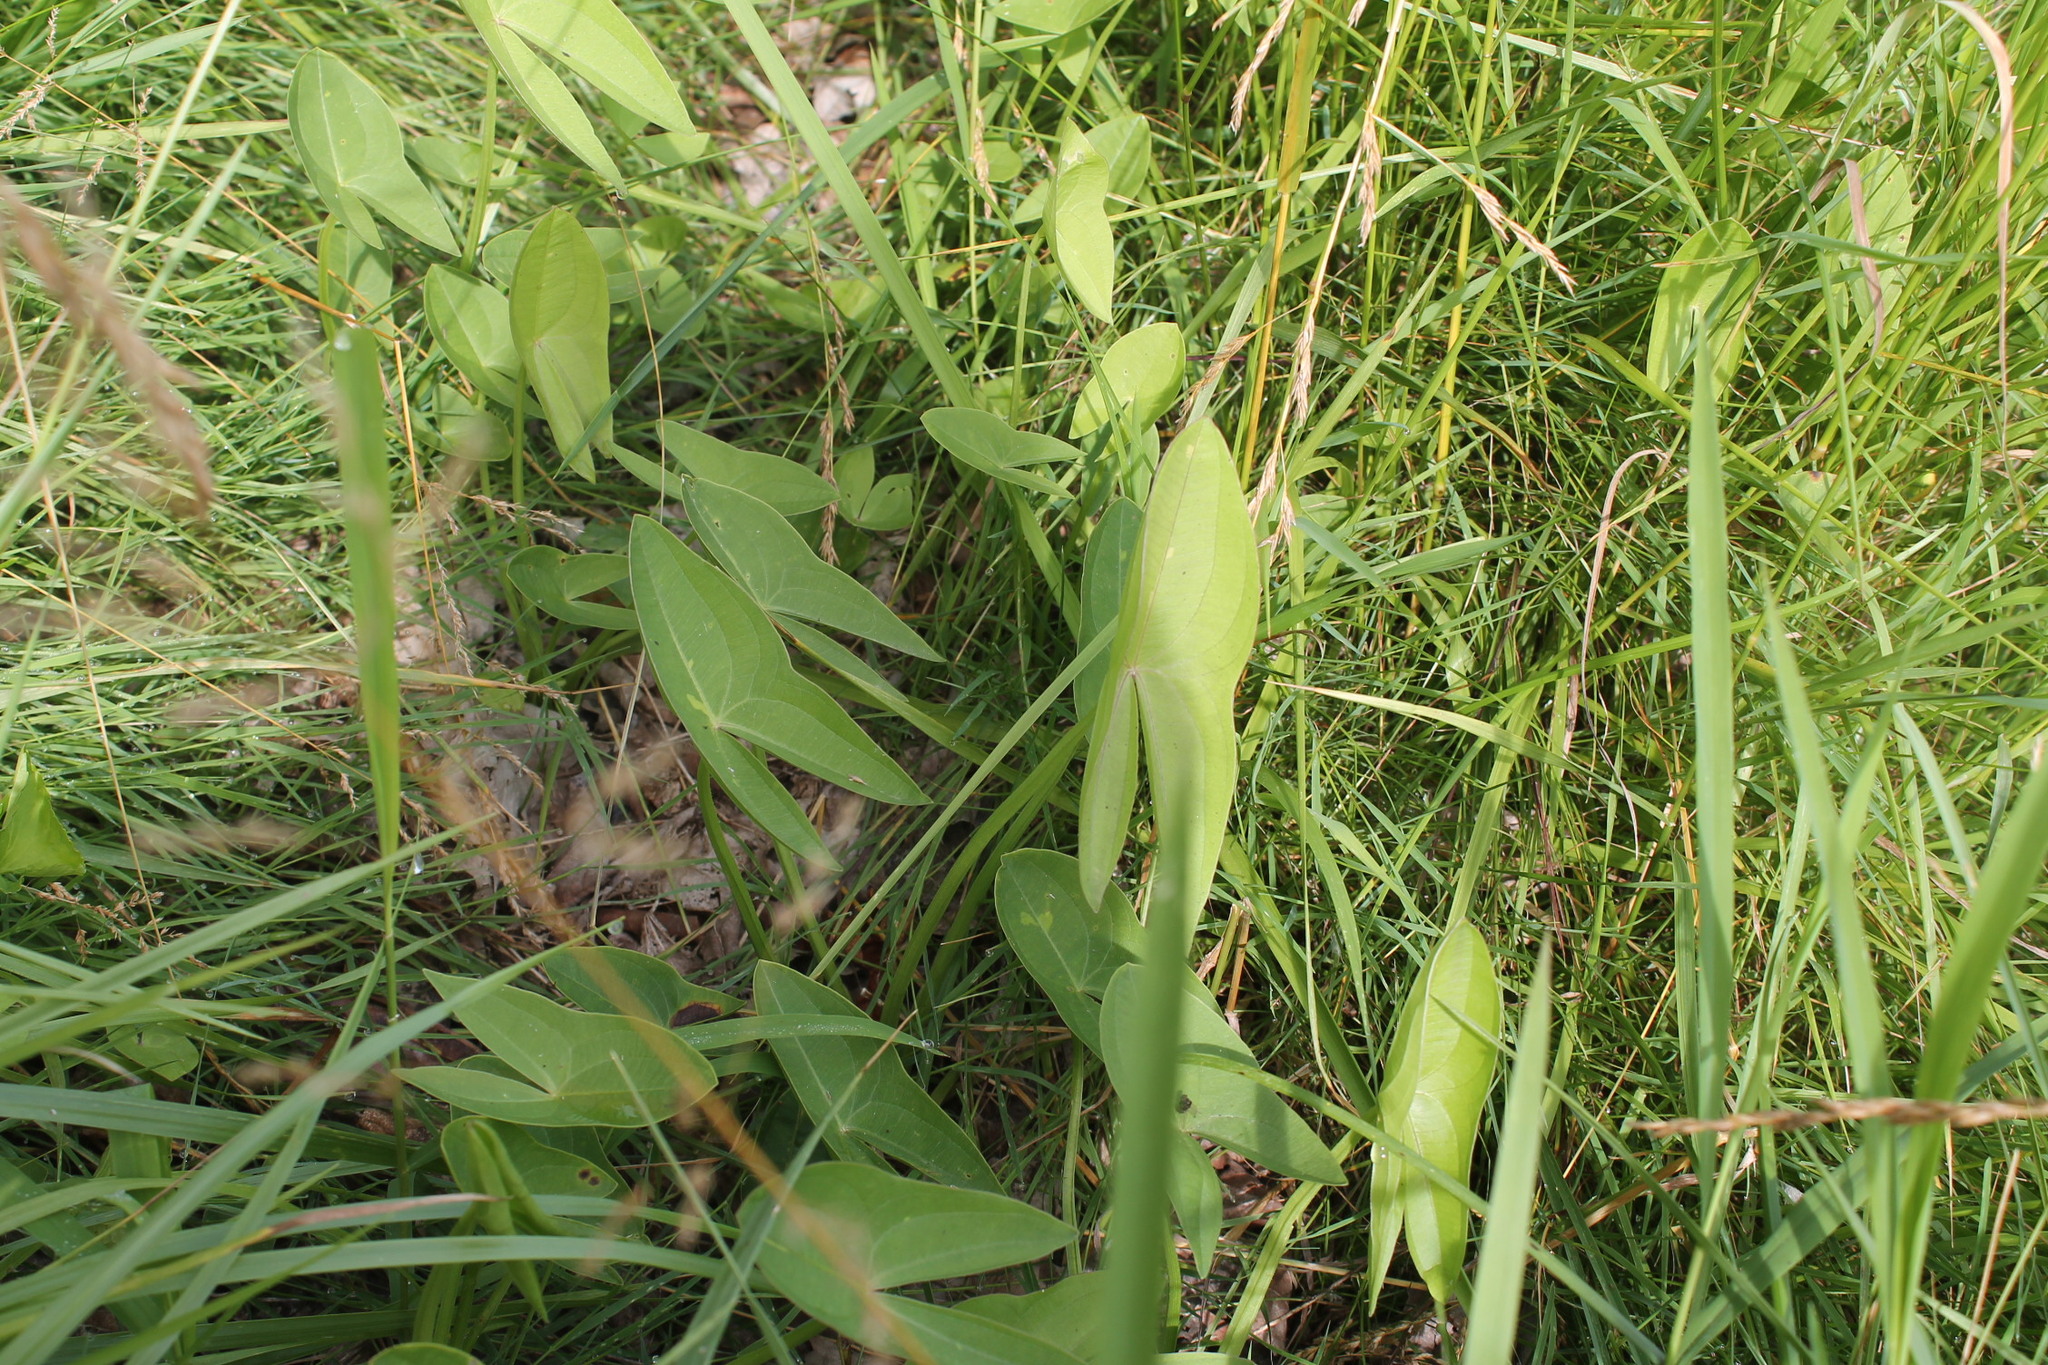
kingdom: Plantae
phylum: Tracheophyta
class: Liliopsida
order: Alismatales
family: Alismataceae
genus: Sagittaria
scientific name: Sagittaria latifolia
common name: Duck-potato
